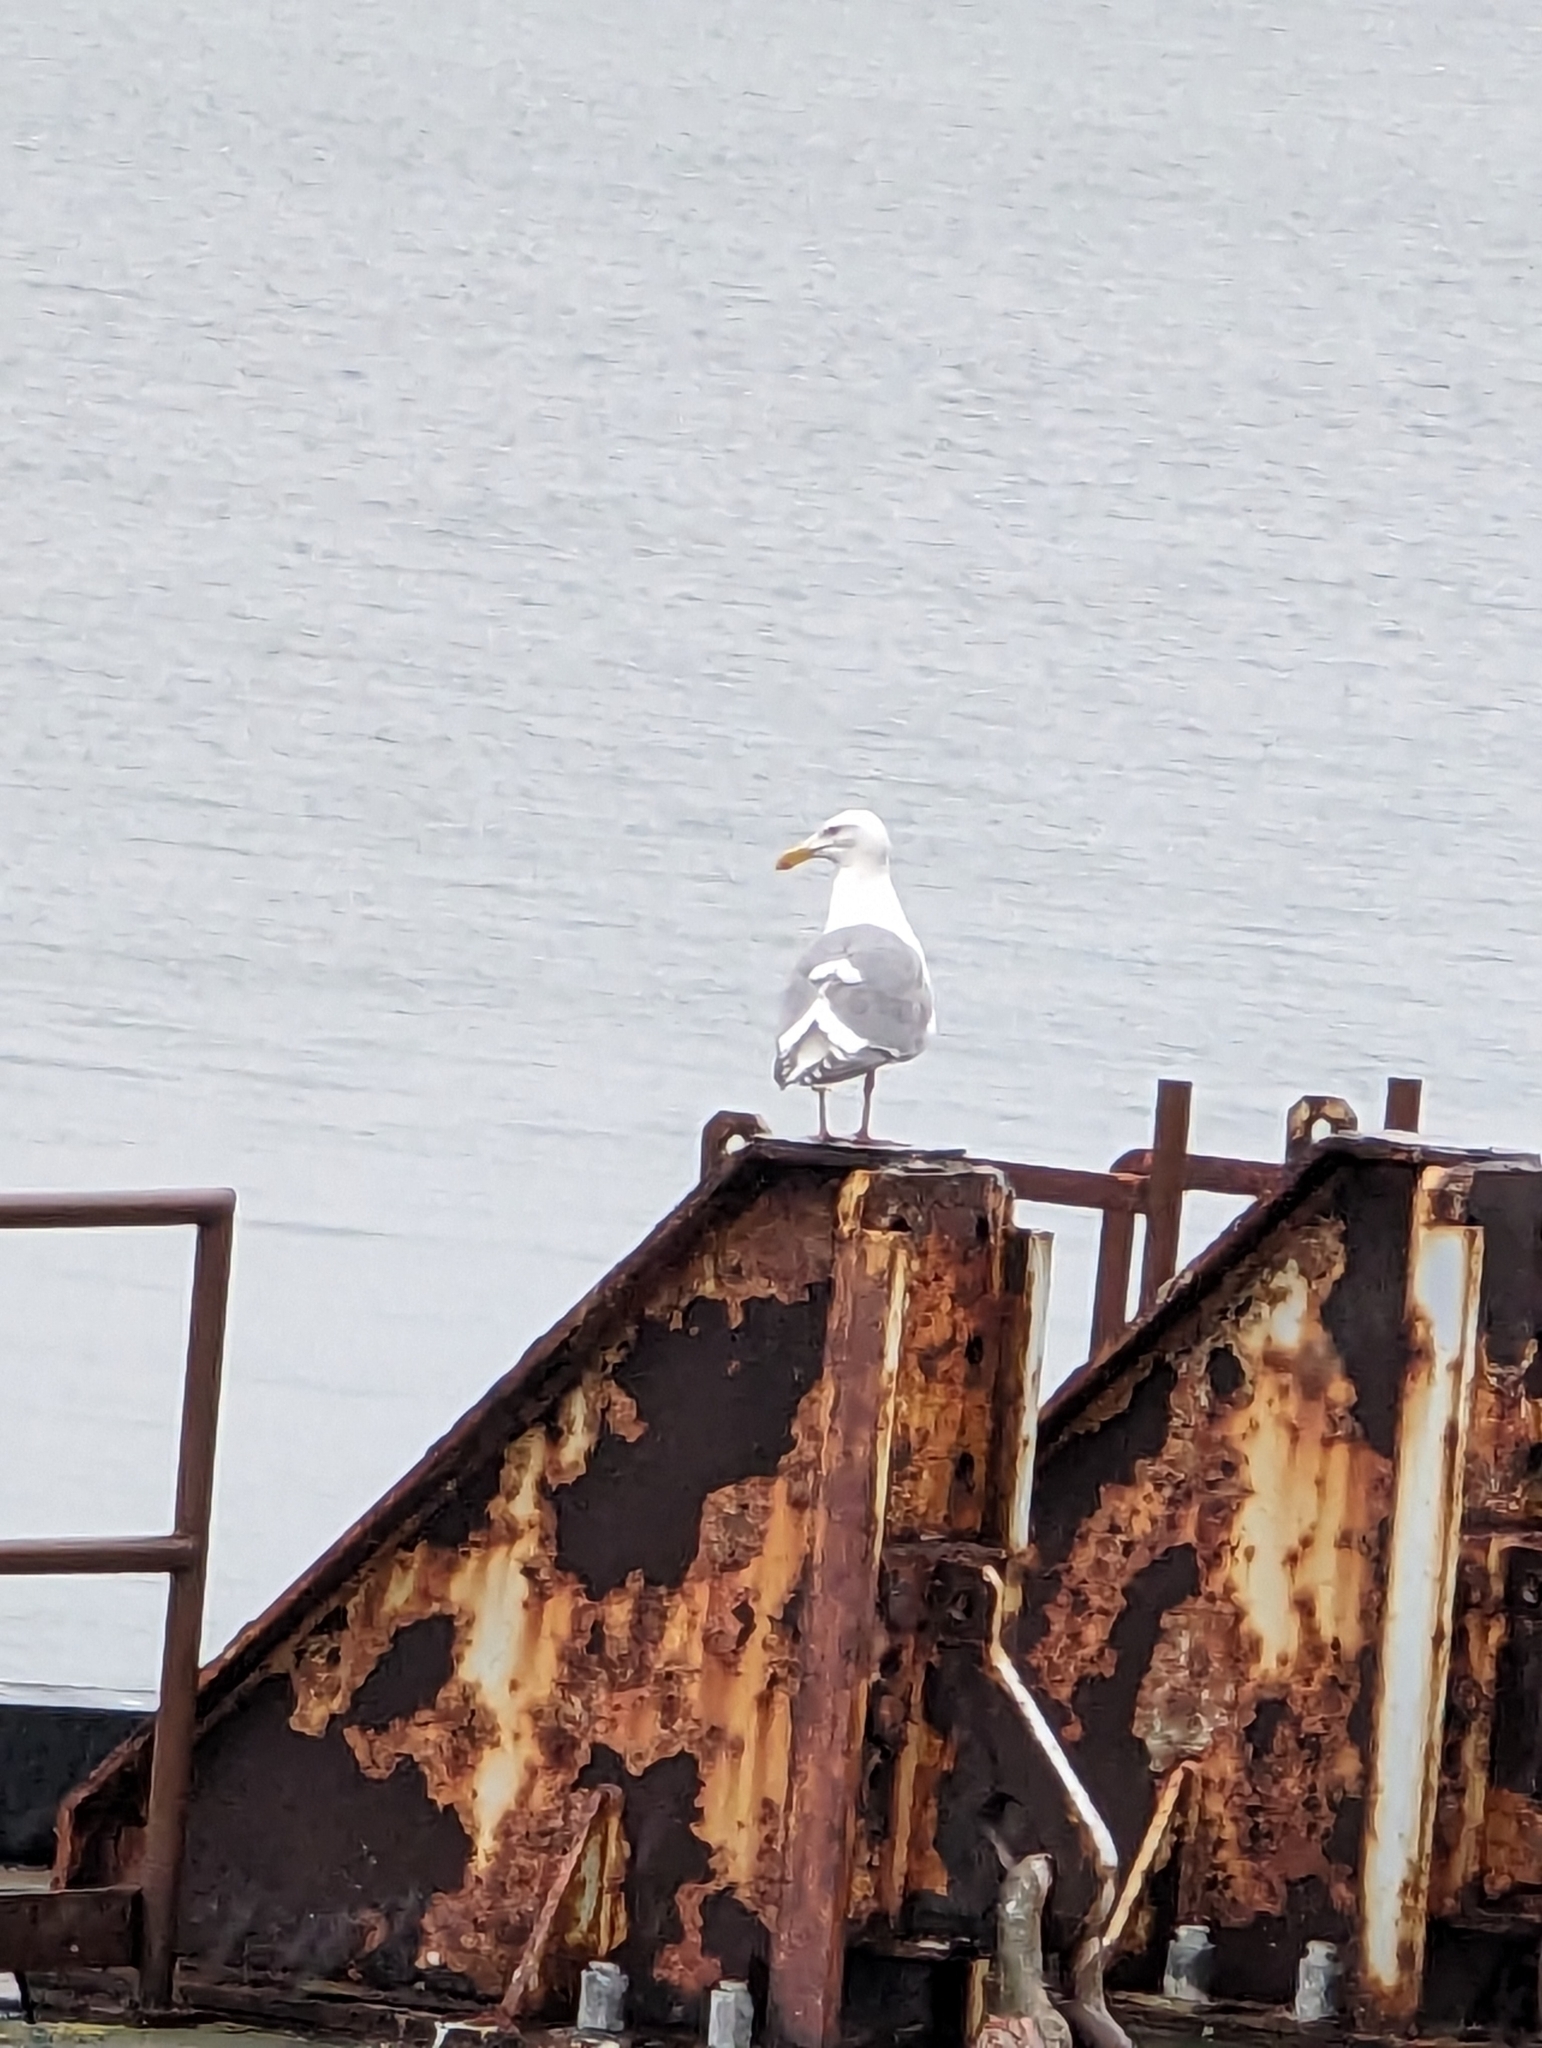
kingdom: Animalia
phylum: Chordata
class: Aves
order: Charadriiformes
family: Laridae
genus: Larus
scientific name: Larus glaucescens
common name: Glaucous-winged gull
